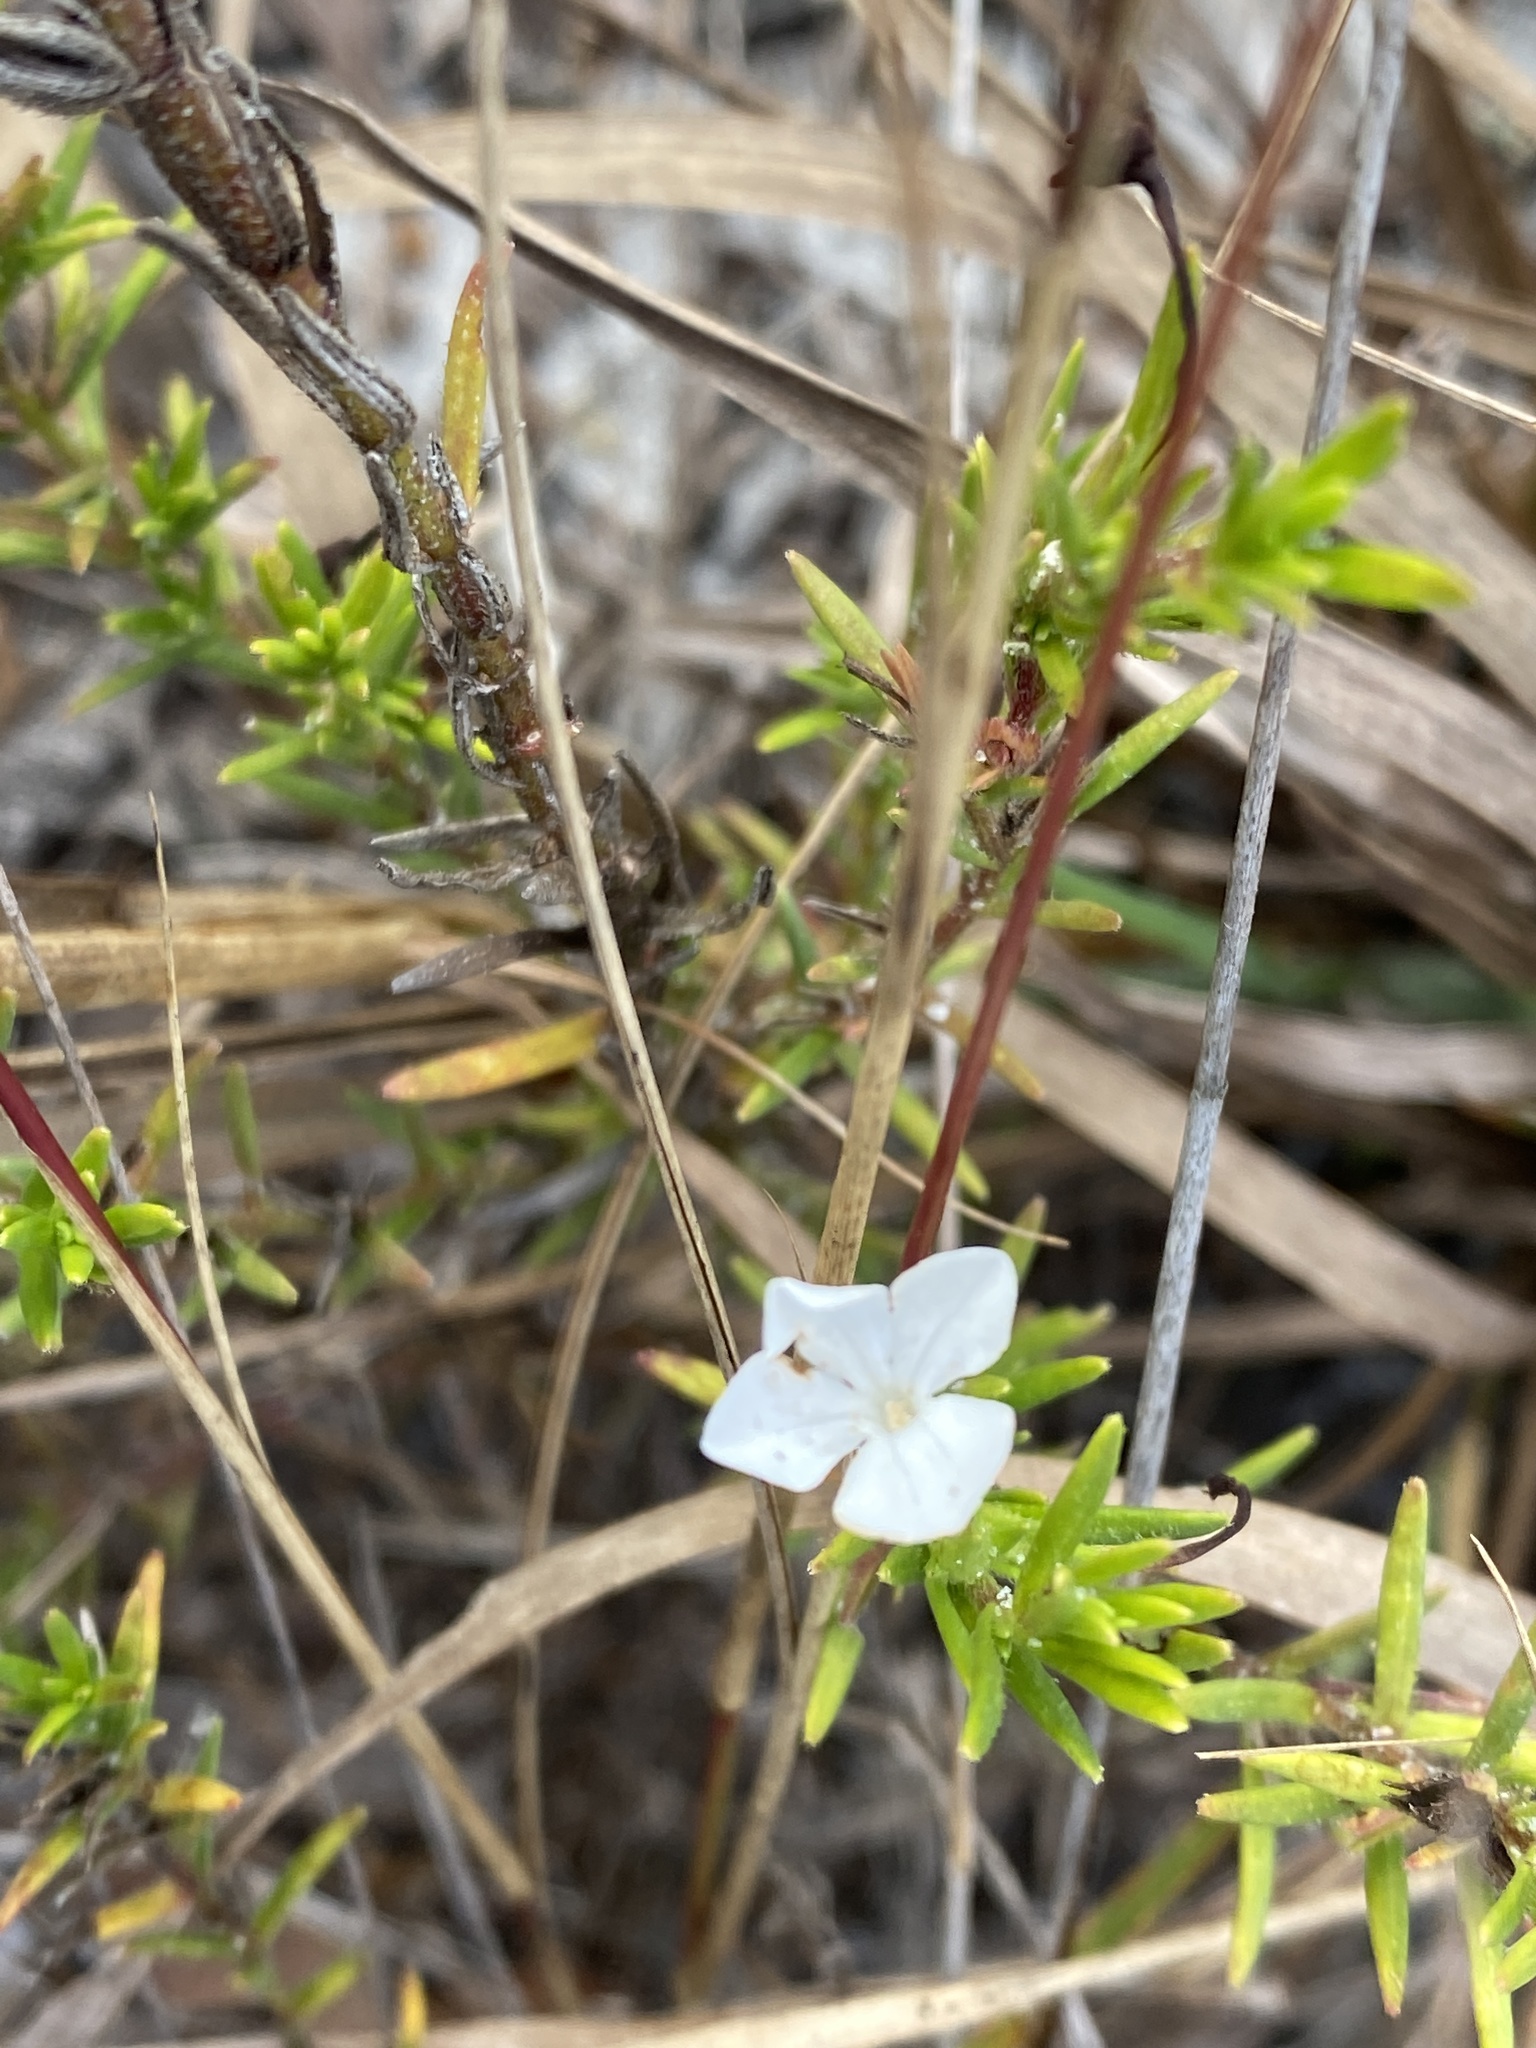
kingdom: Plantae
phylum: Tracheophyta
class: Magnoliopsida
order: Lamiales
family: Plantaginaceae
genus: Gratiola
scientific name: Gratiola hispida
